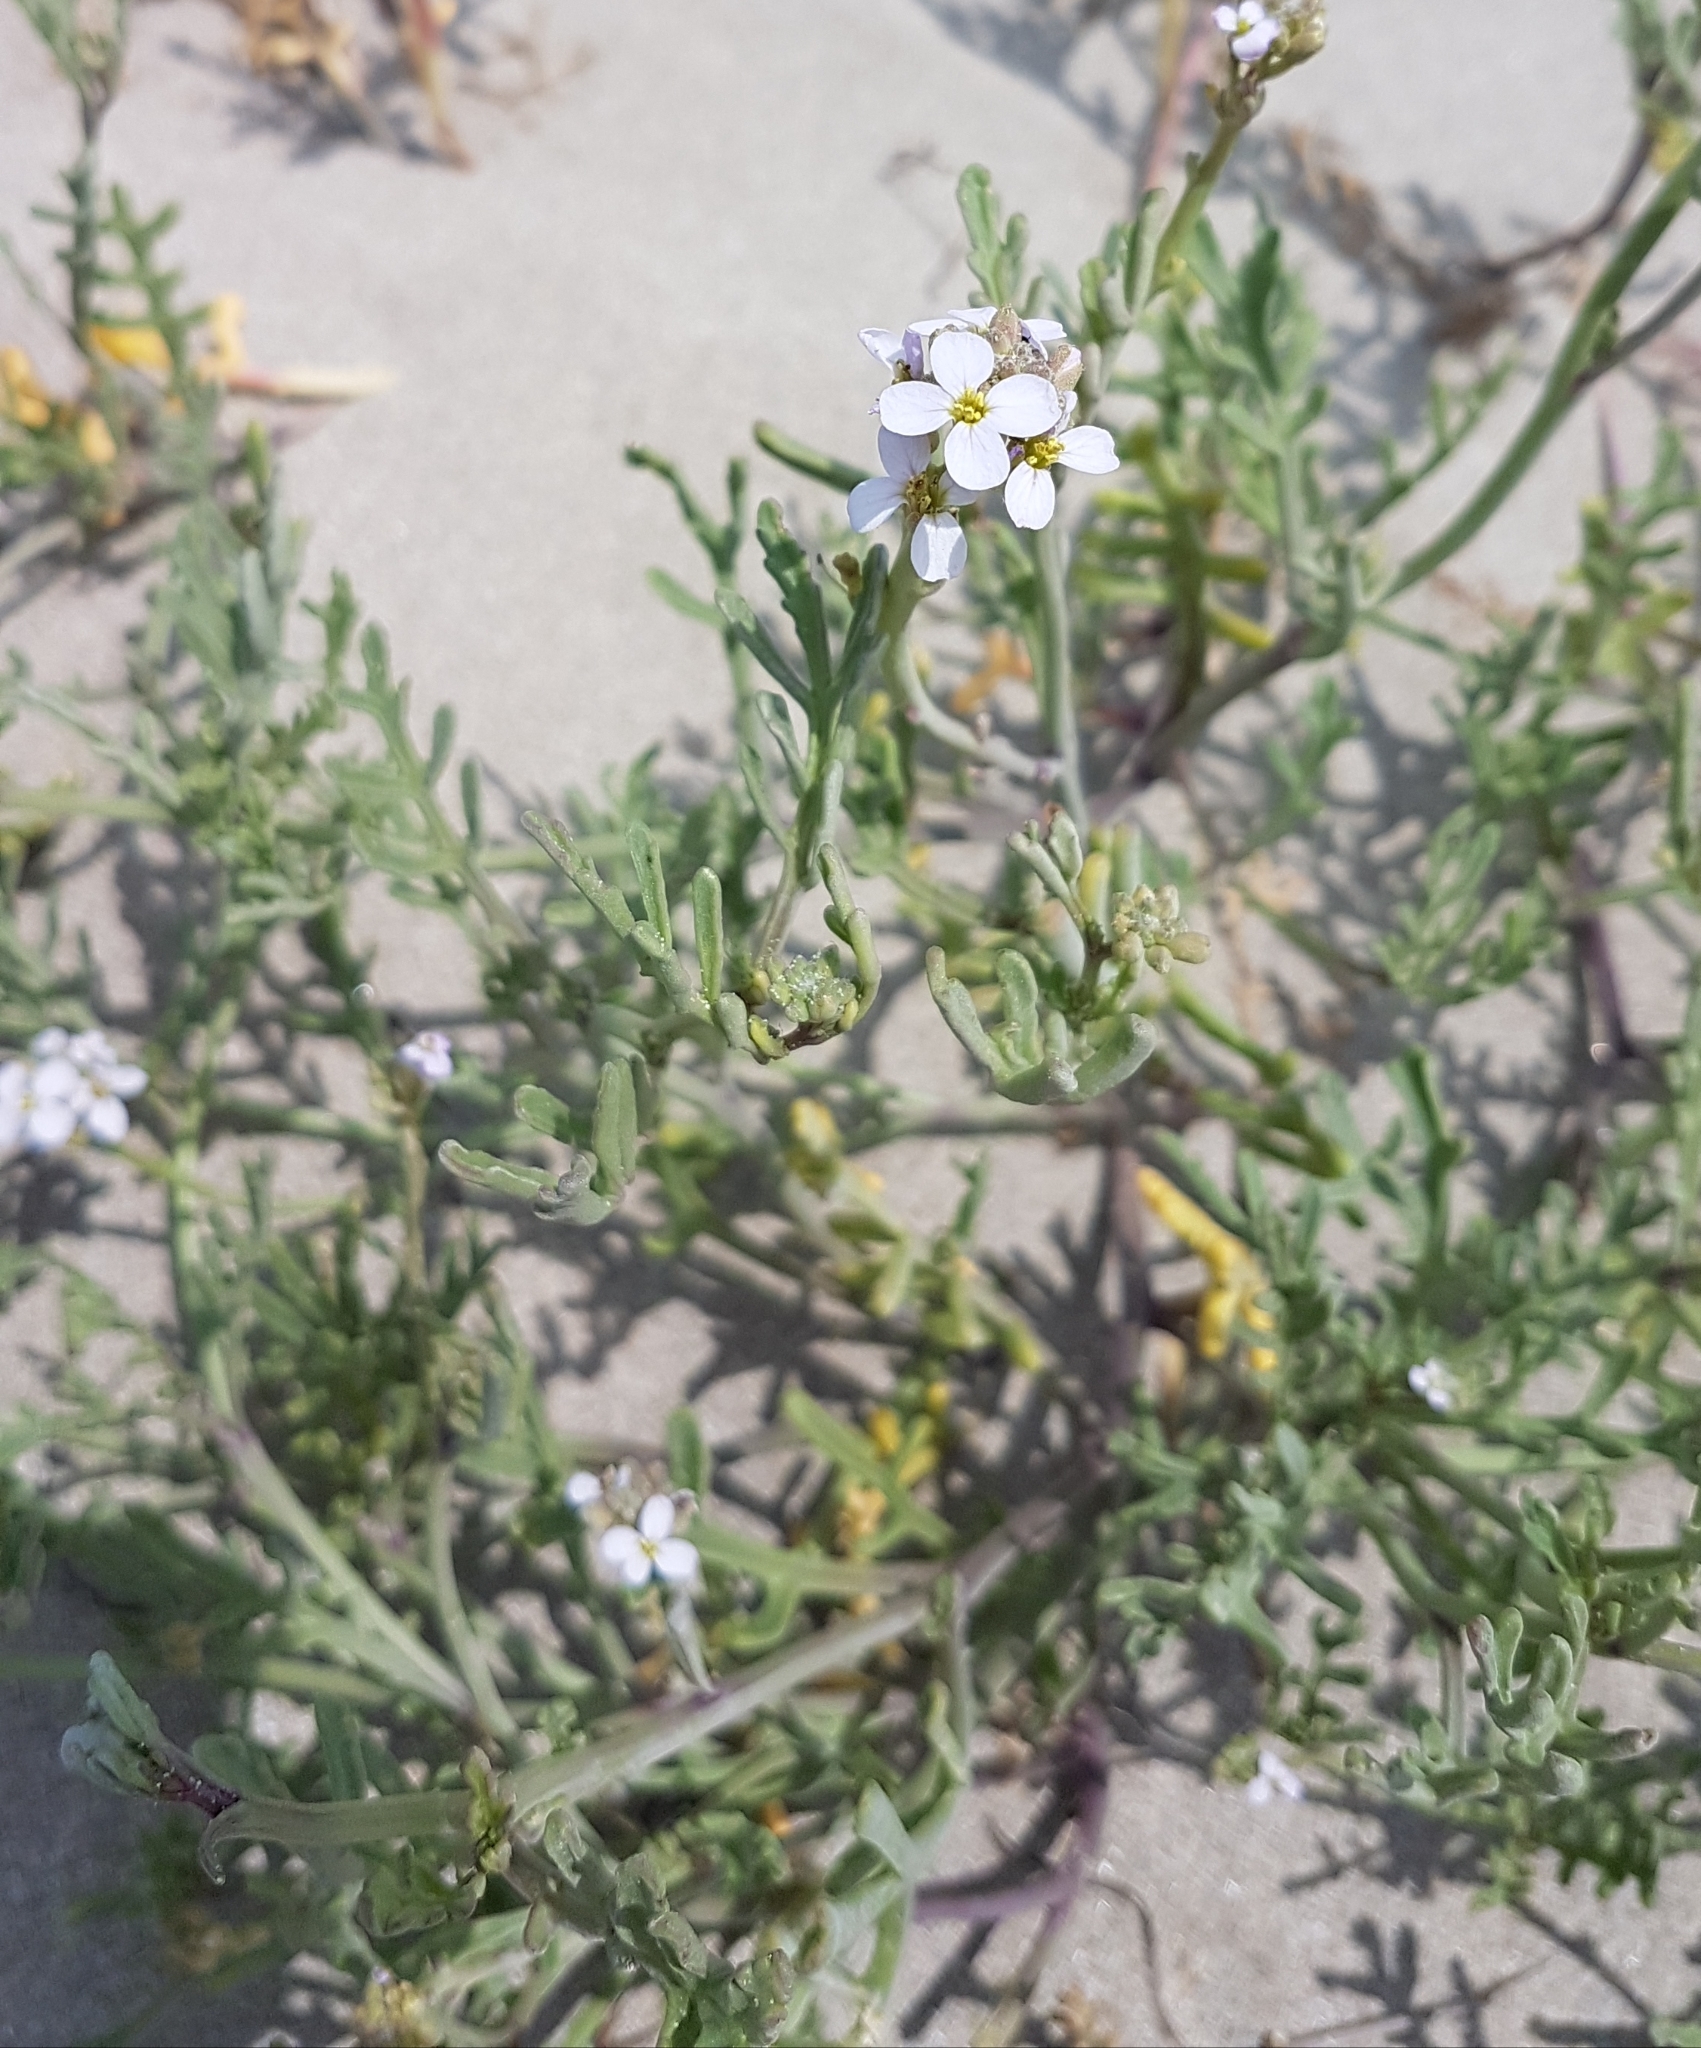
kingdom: Plantae
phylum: Tracheophyta
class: Magnoliopsida
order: Brassicales
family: Brassicaceae
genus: Cakile
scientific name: Cakile maritima
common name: Sea rocket
